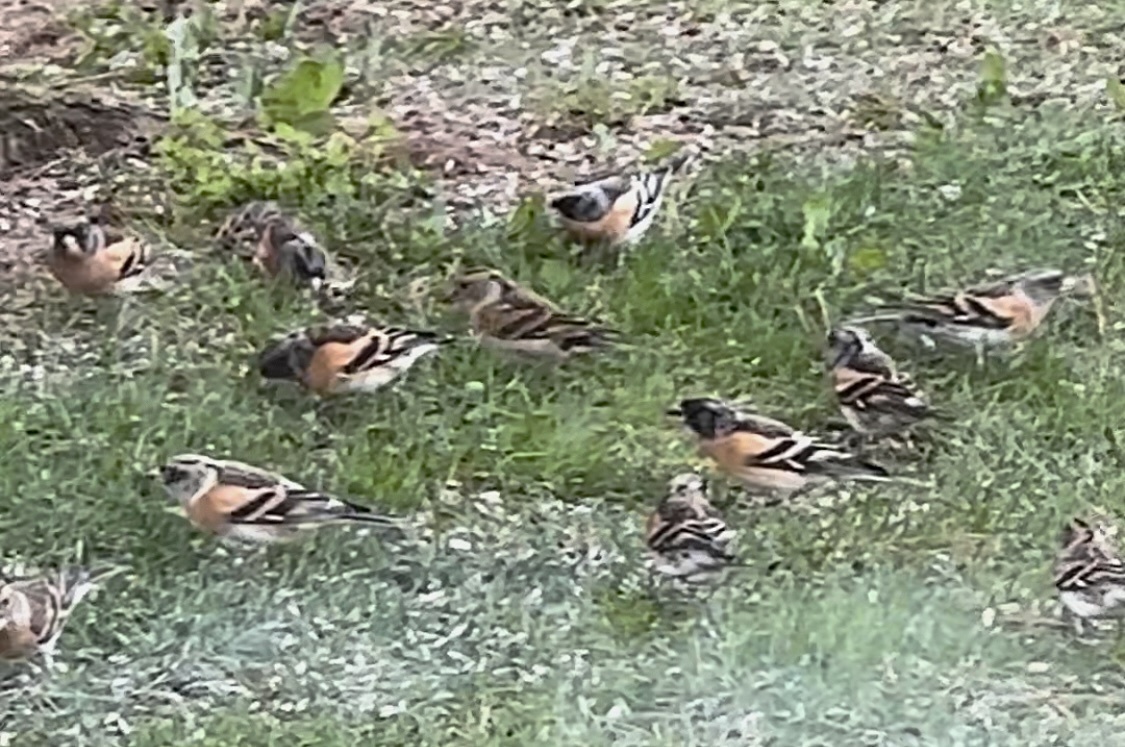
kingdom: Animalia
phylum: Chordata
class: Aves
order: Passeriformes
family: Fringillidae
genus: Fringilla
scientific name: Fringilla montifringilla
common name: Brambling
